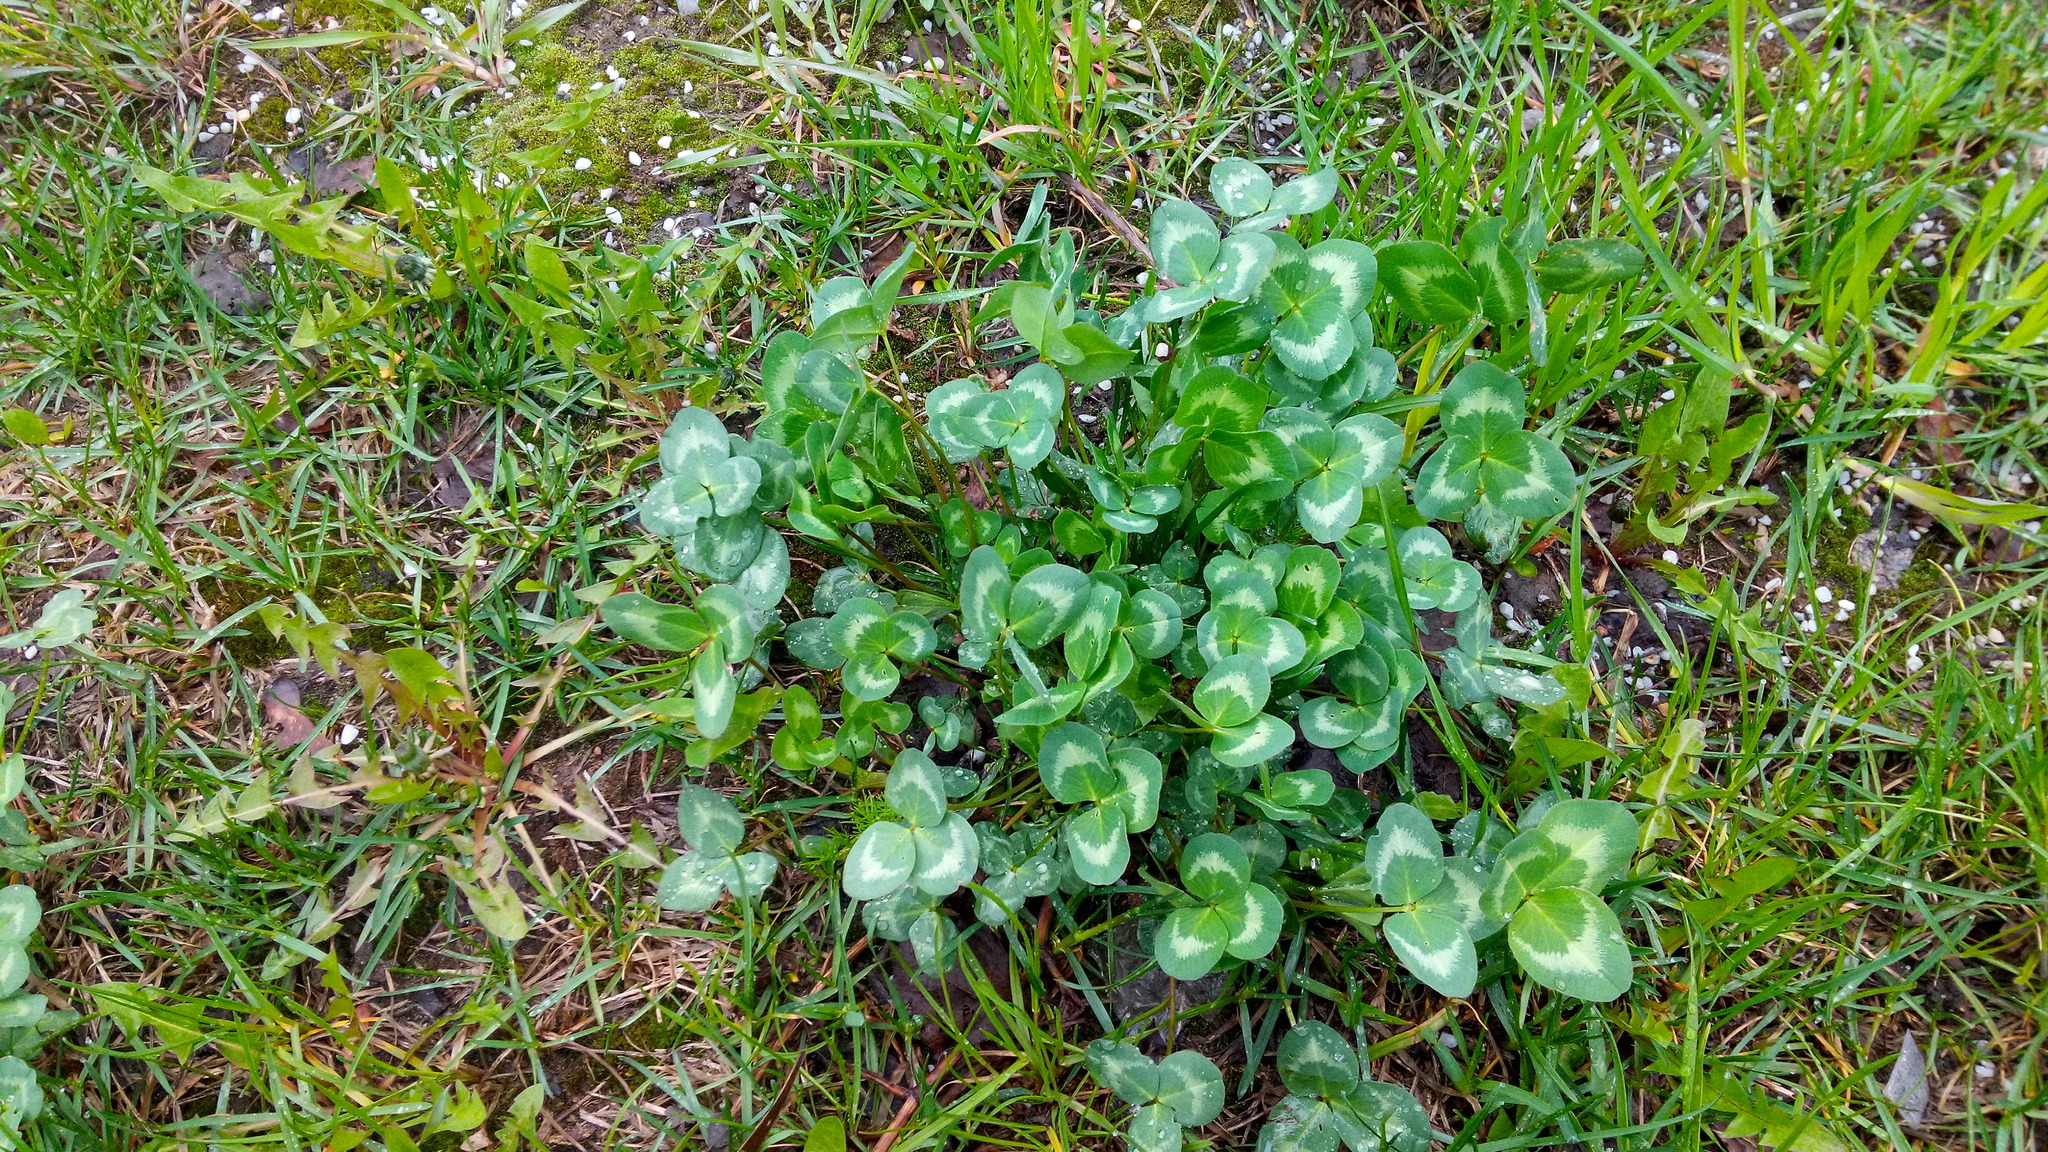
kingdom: Plantae
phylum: Tracheophyta
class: Magnoliopsida
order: Fabales
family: Fabaceae
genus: Trifolium
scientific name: Trifolium pratense
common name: Red clover
